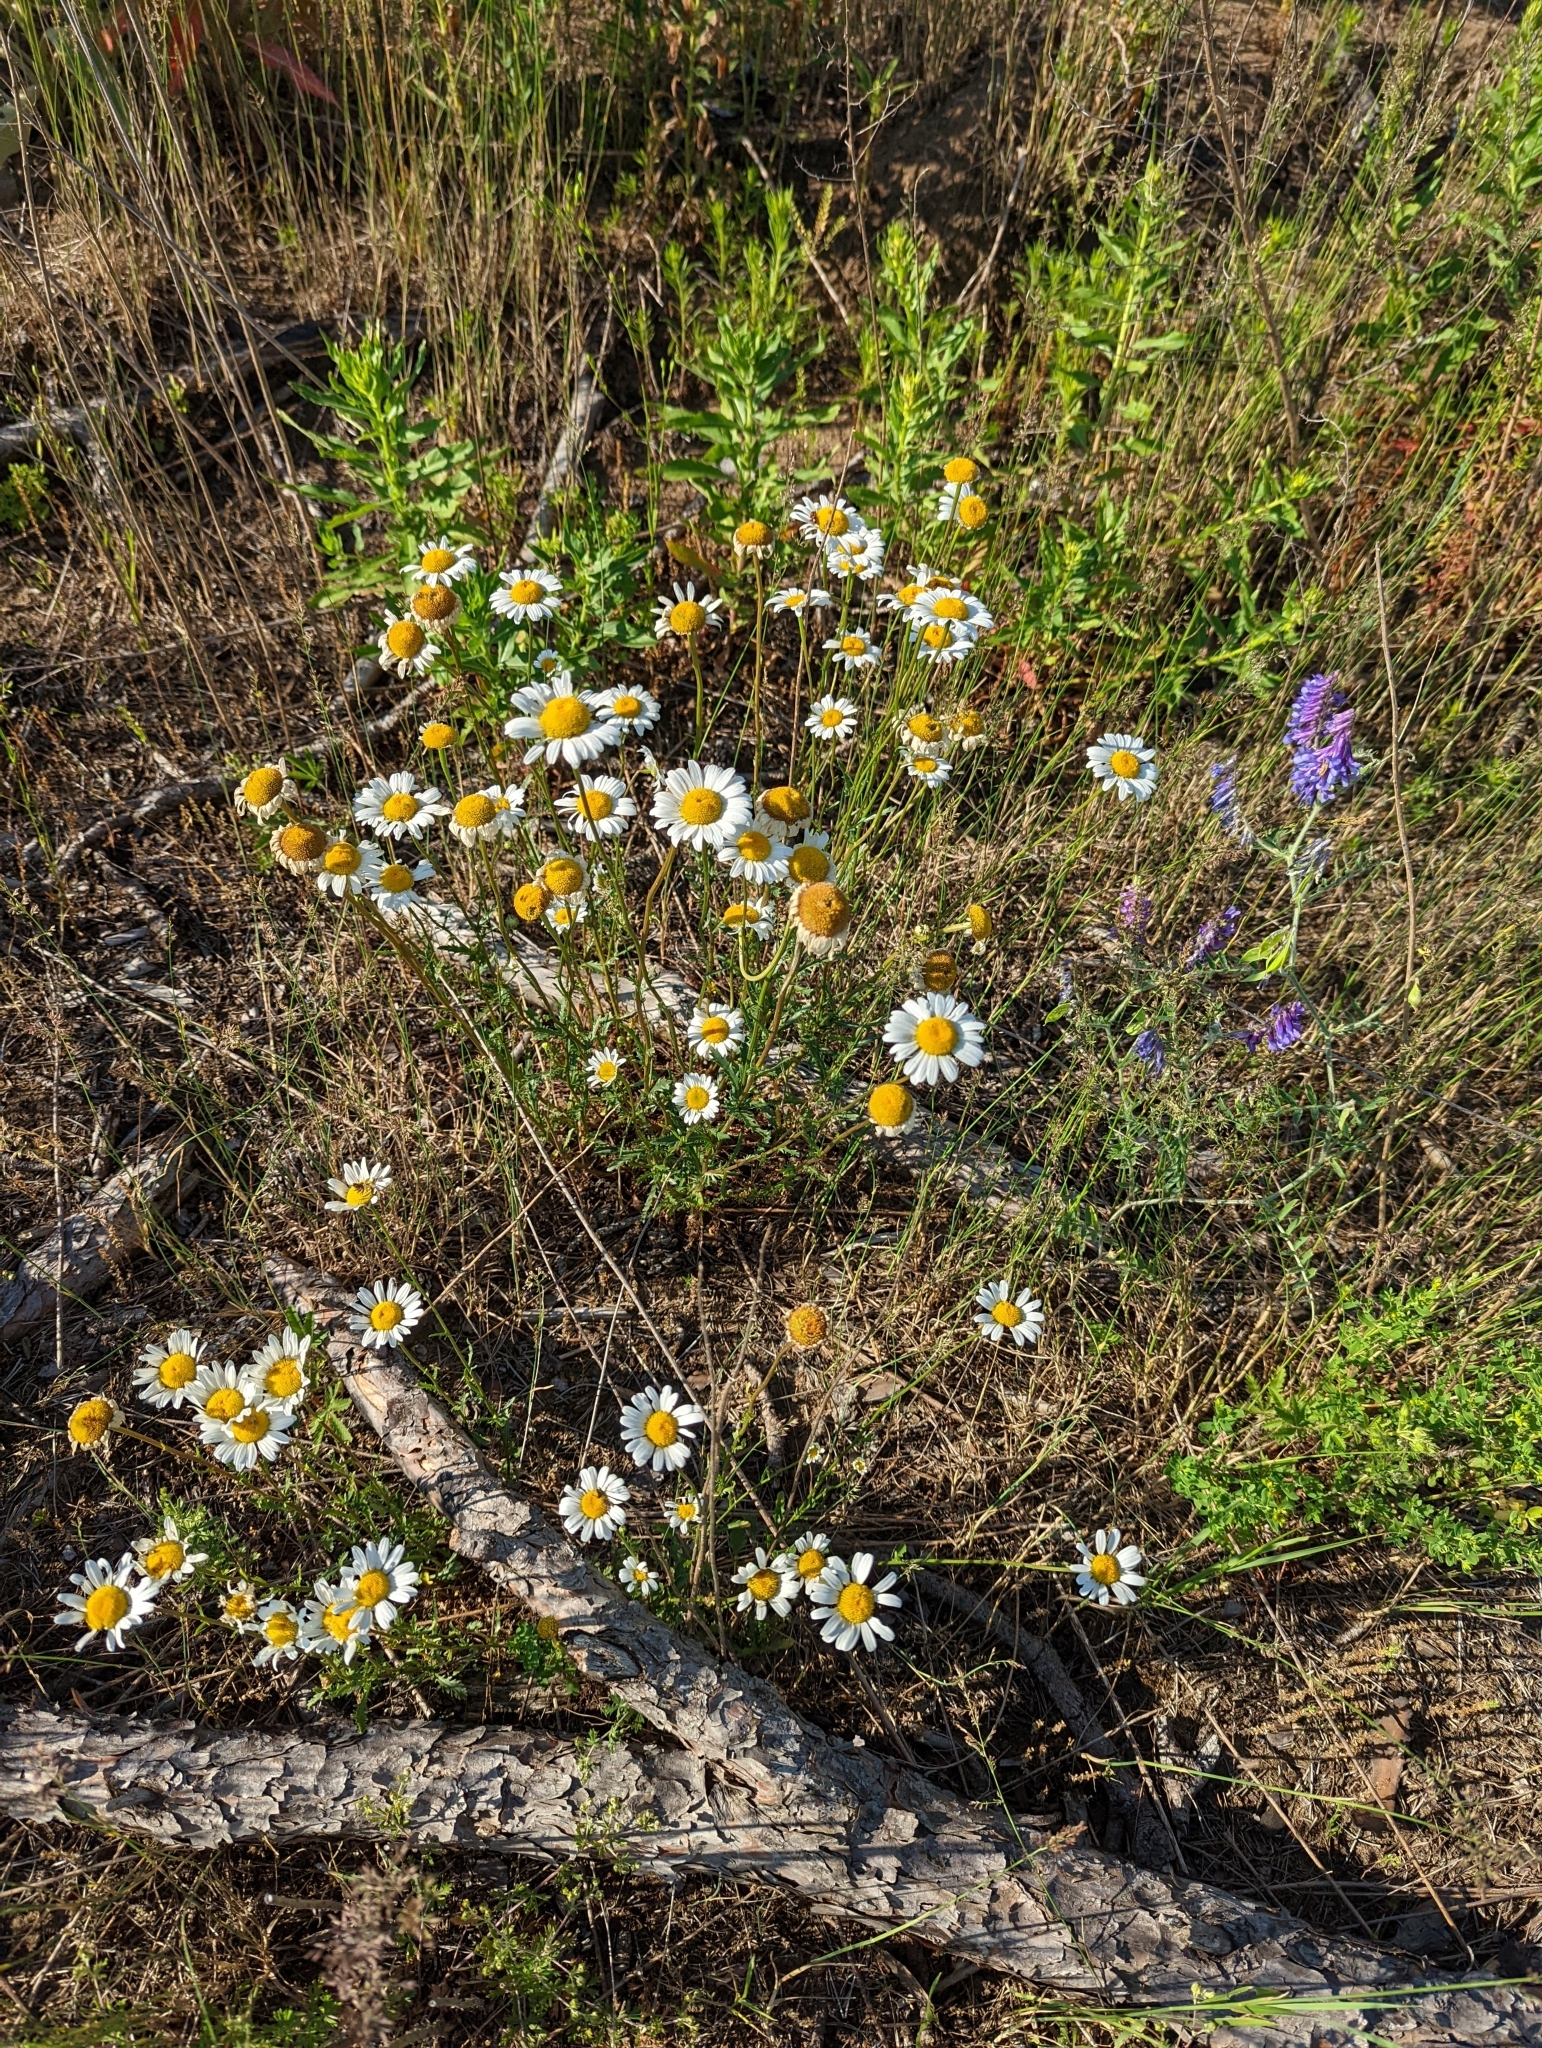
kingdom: Plantae
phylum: Tracheophyta
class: Magnoliopsida
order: Asterales
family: Asteraceae
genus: Leucanthemum
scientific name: Leucanthemum vulgare
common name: Oxeye daisy
